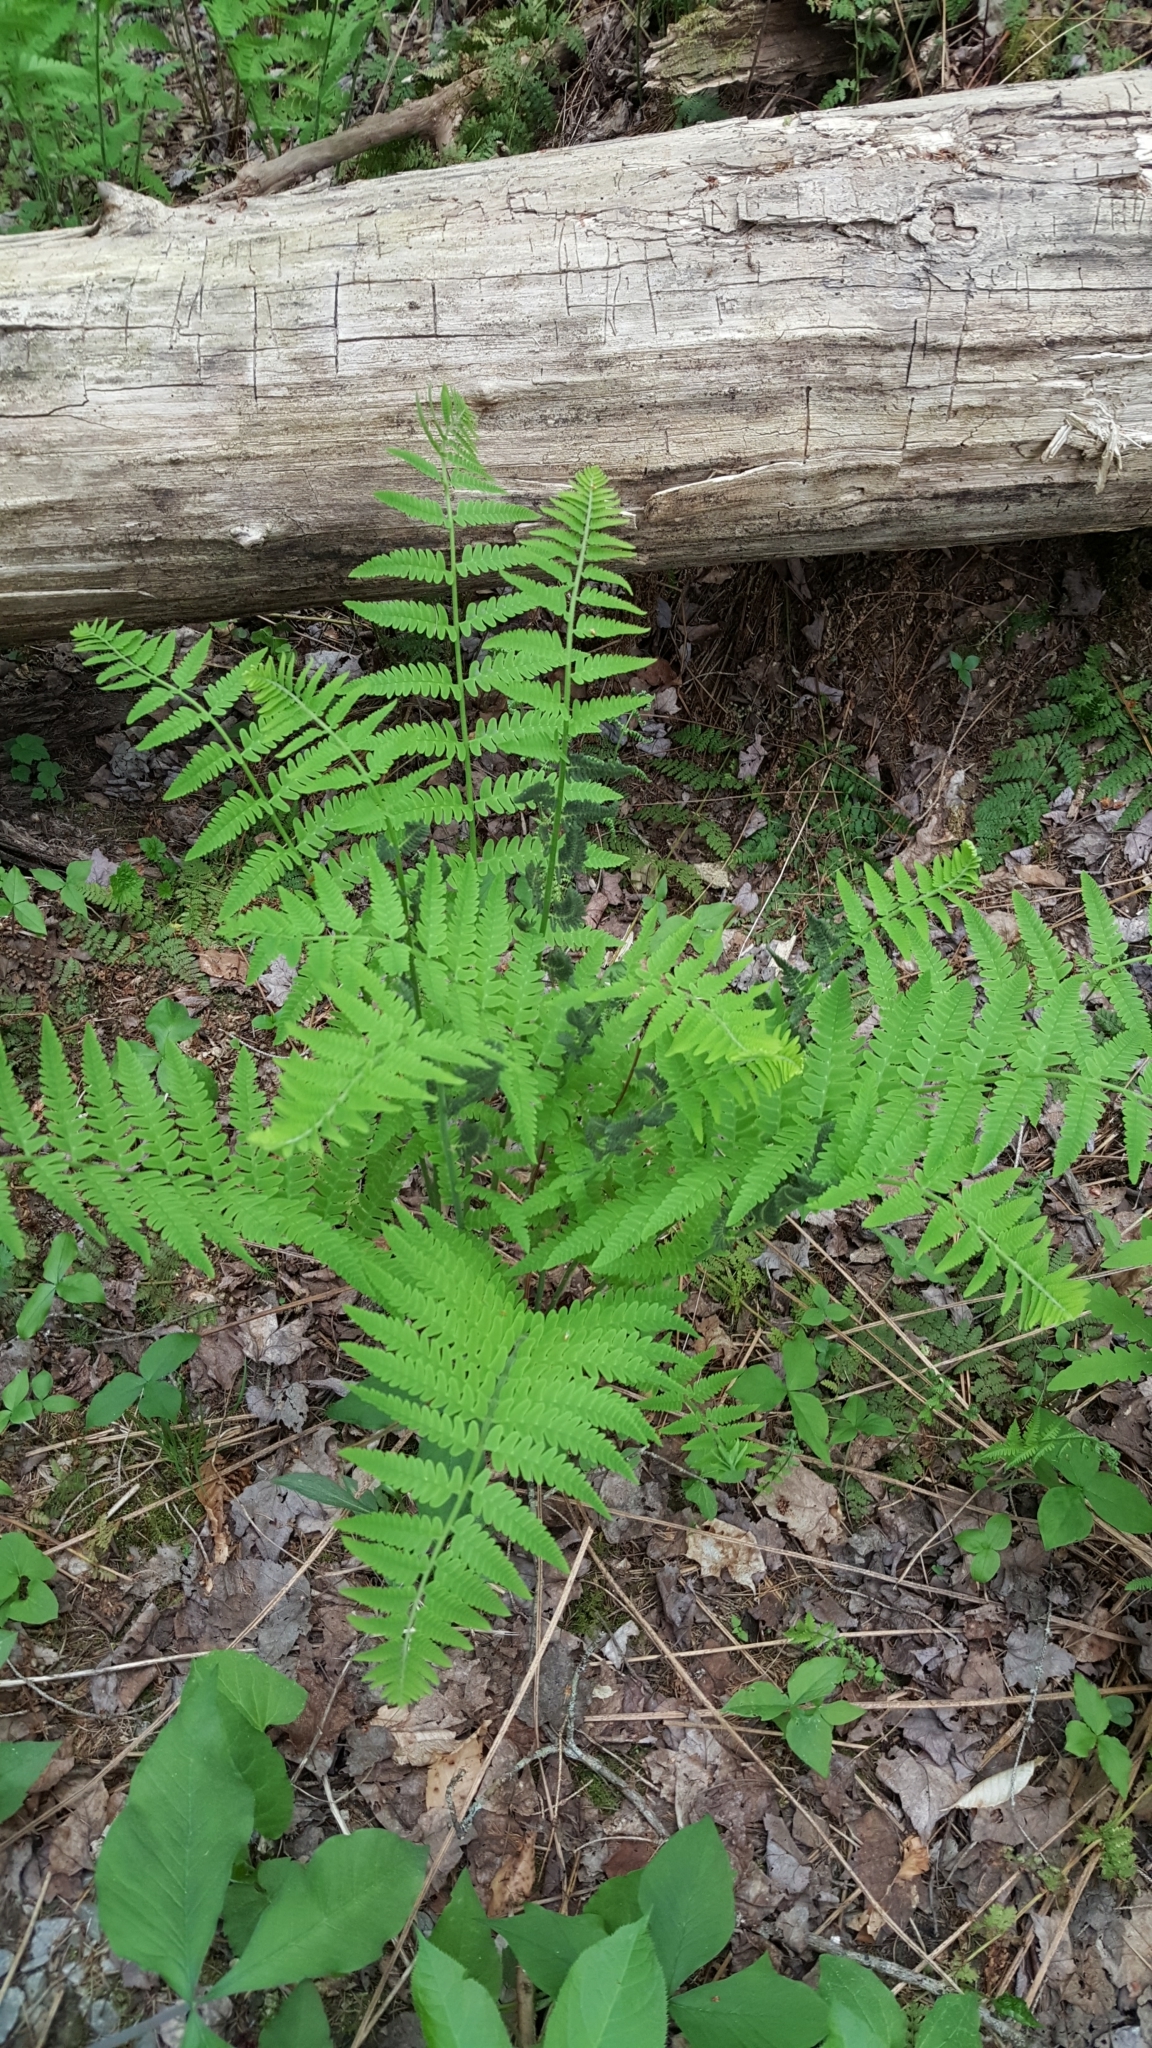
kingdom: Plantae
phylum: Tracheophyta
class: Polypodiopsida
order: Osmundales
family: Osmundaceae
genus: Claytosmunda
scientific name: Claytosmunda claytoniana
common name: Clayton's fern
